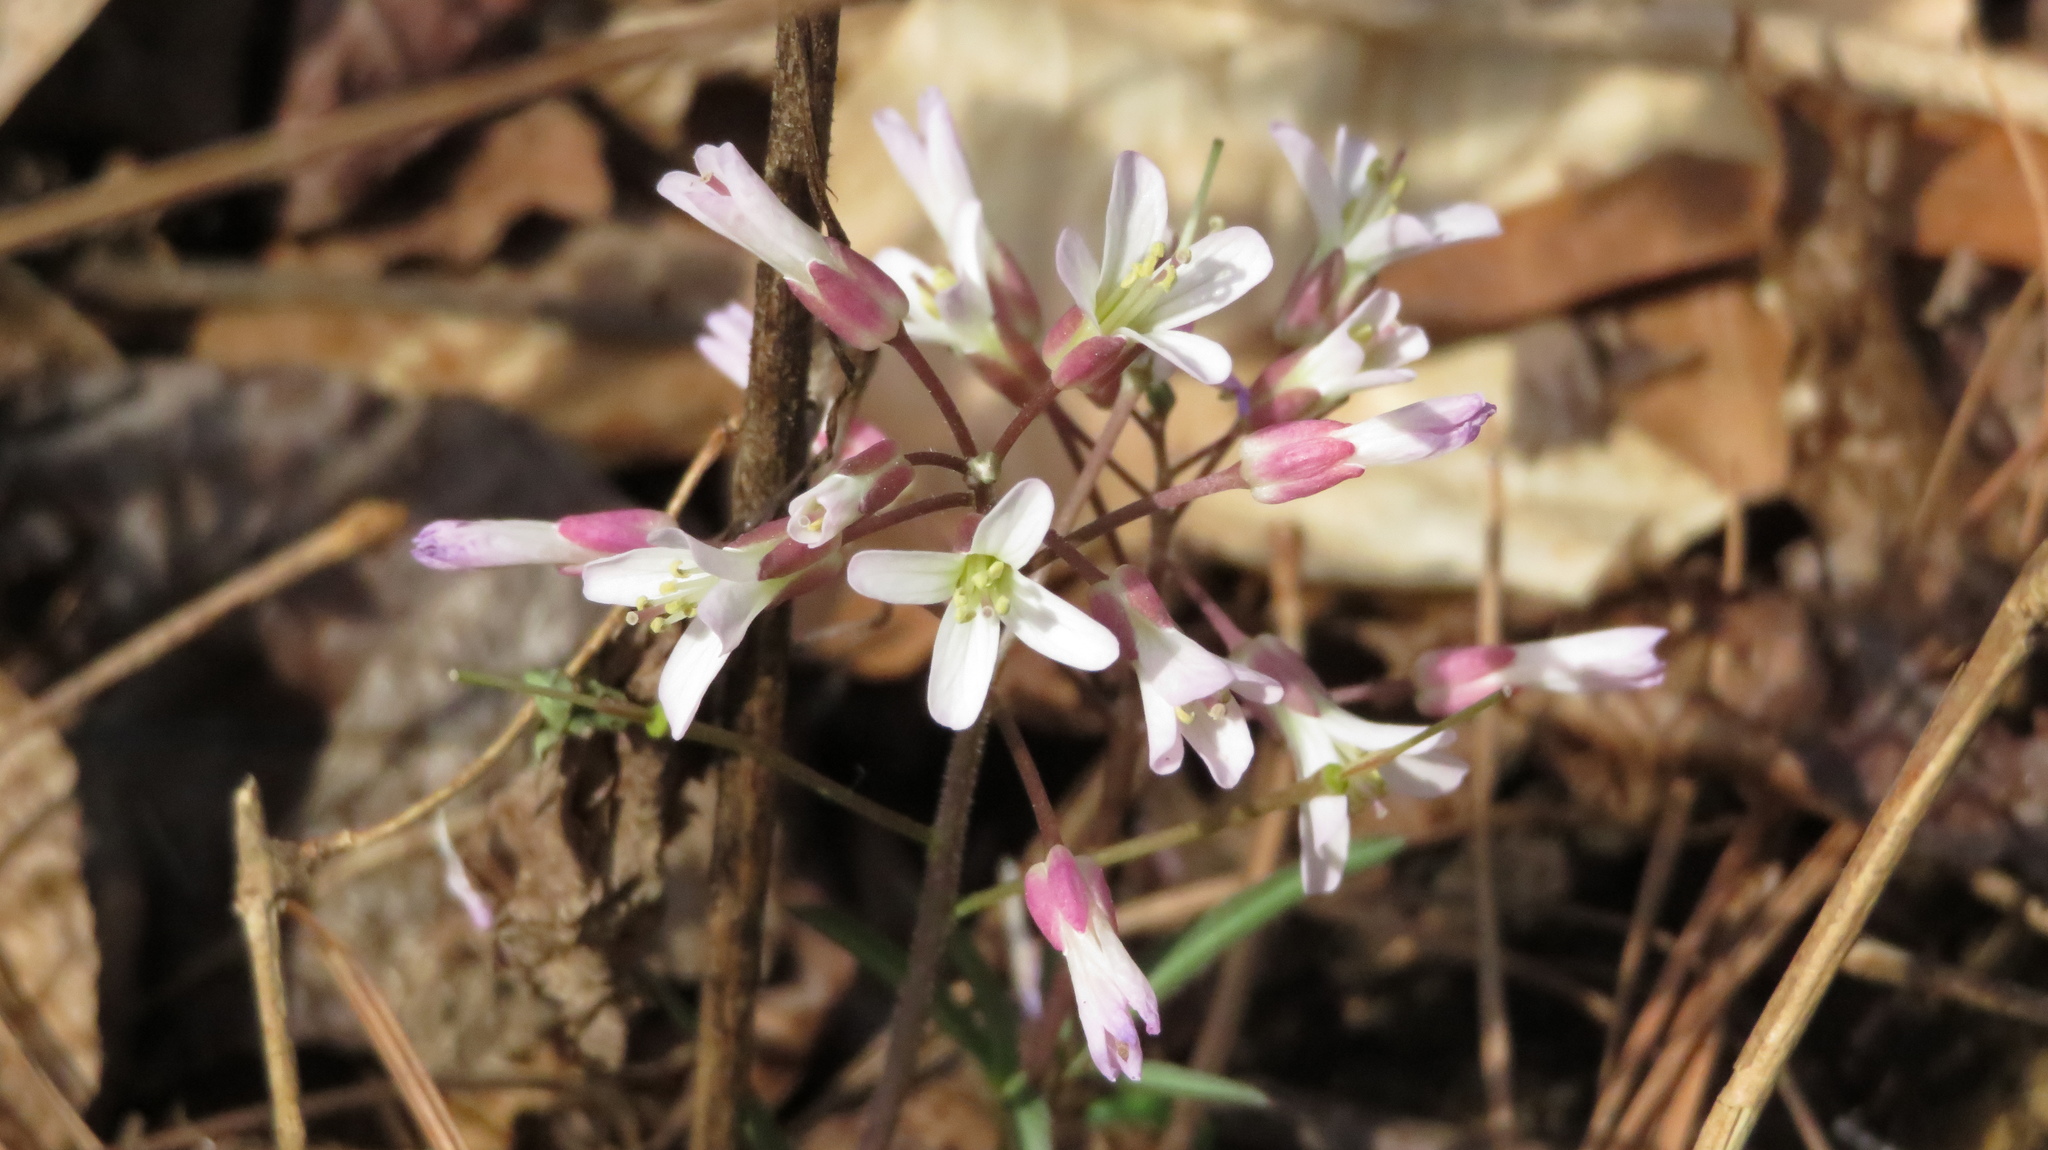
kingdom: Plantae
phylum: Tracheophyta
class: Magnoliopsida
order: Brassicales
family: Brassicaceae
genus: Cardamine
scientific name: Cardamine angustata
